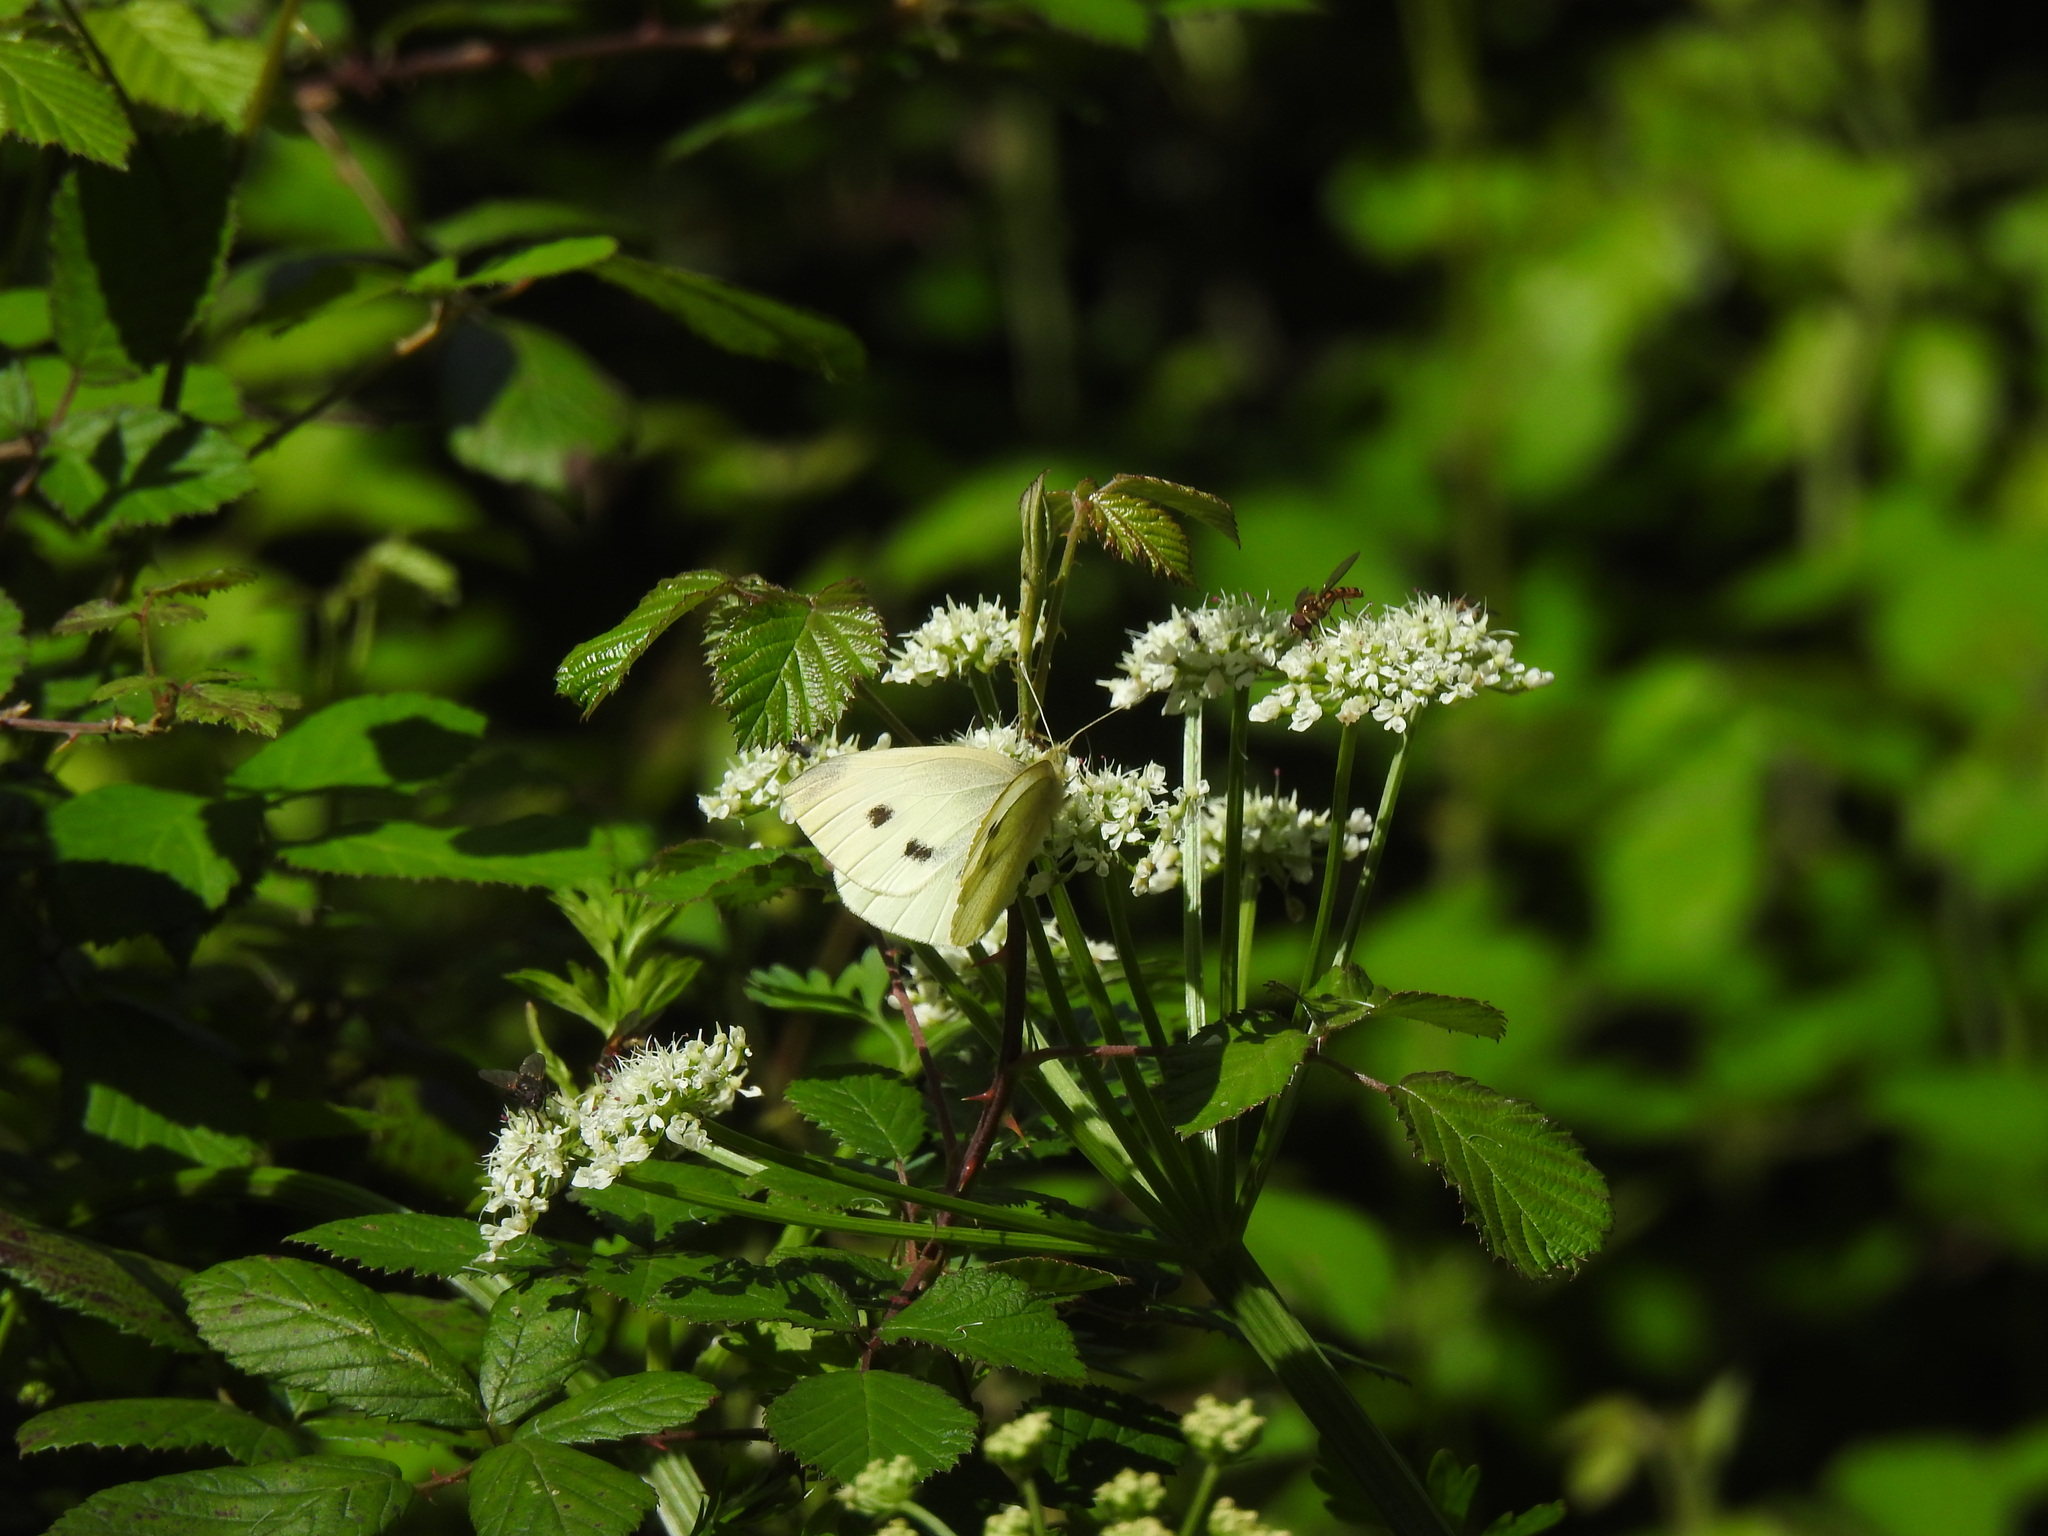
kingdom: Animalia
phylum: Arthropoda
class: Insecta
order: Lepidoptera
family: Pieridae
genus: Pieris
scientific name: Pieris rapae
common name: Small white
